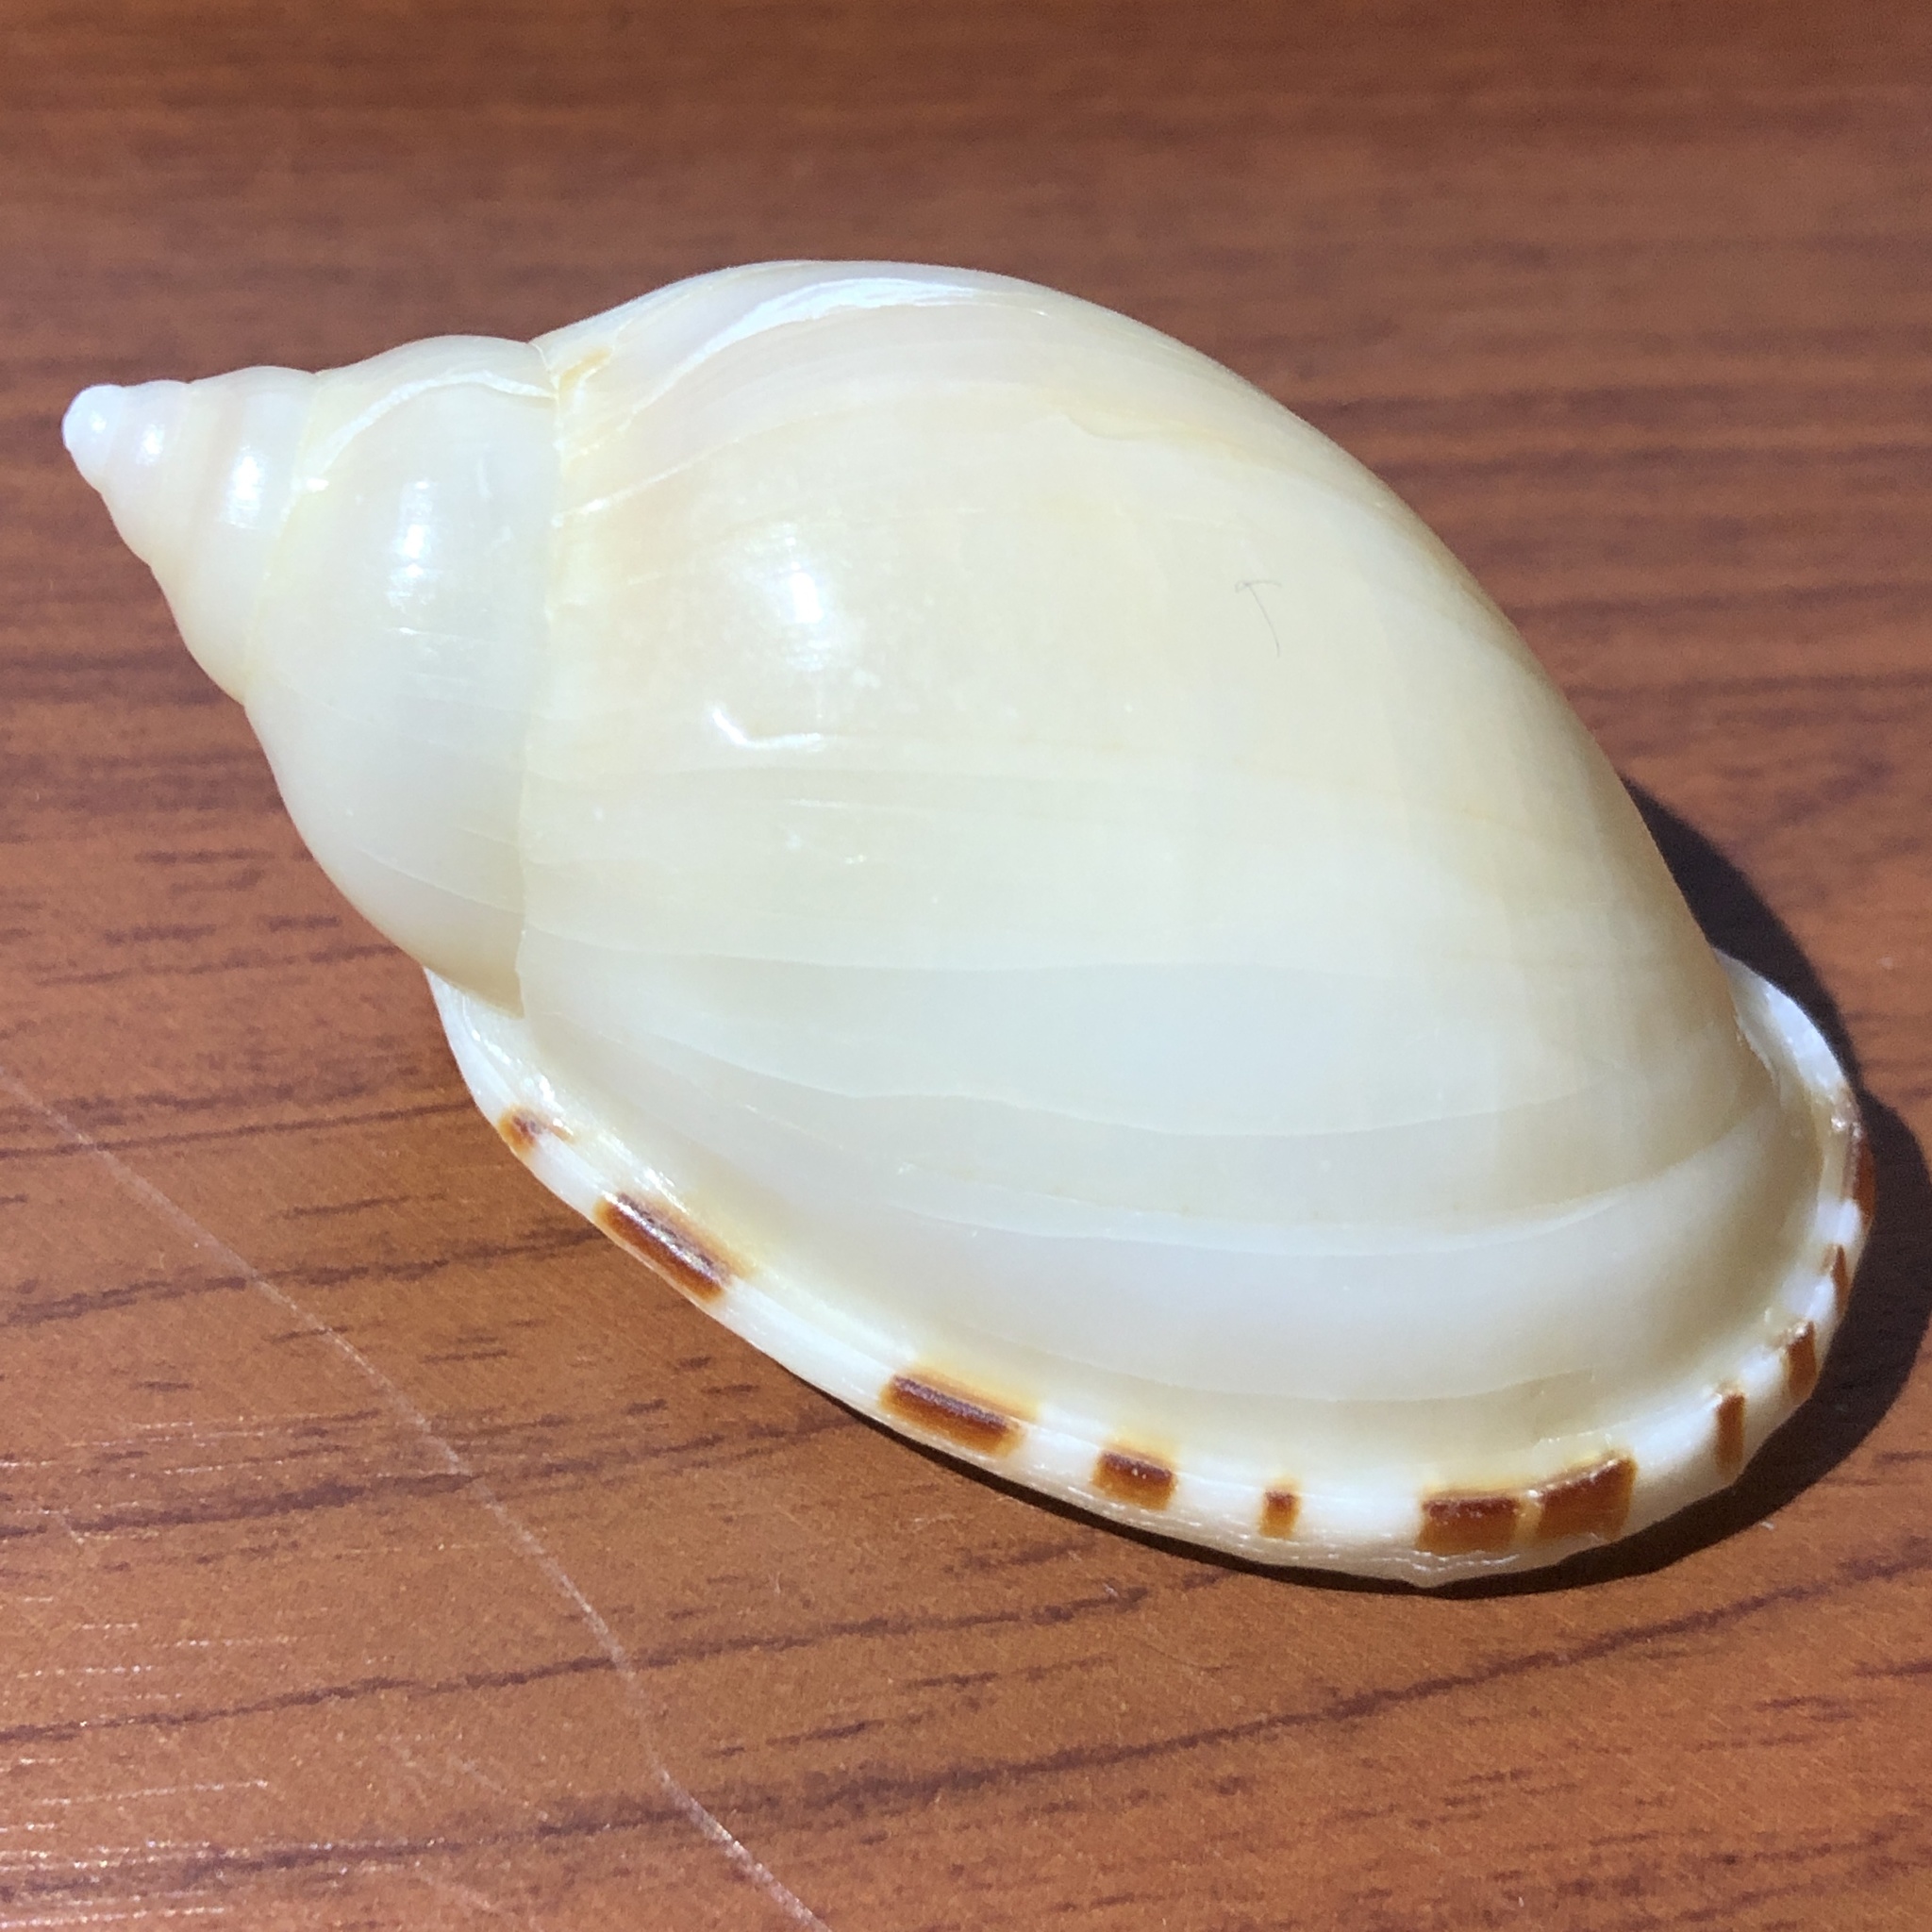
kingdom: Animalia
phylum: Mollusca
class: Gastropoda
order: Littorinimorpha
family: Cassidae
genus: Casmaria
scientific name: Casmaria erinaceus
